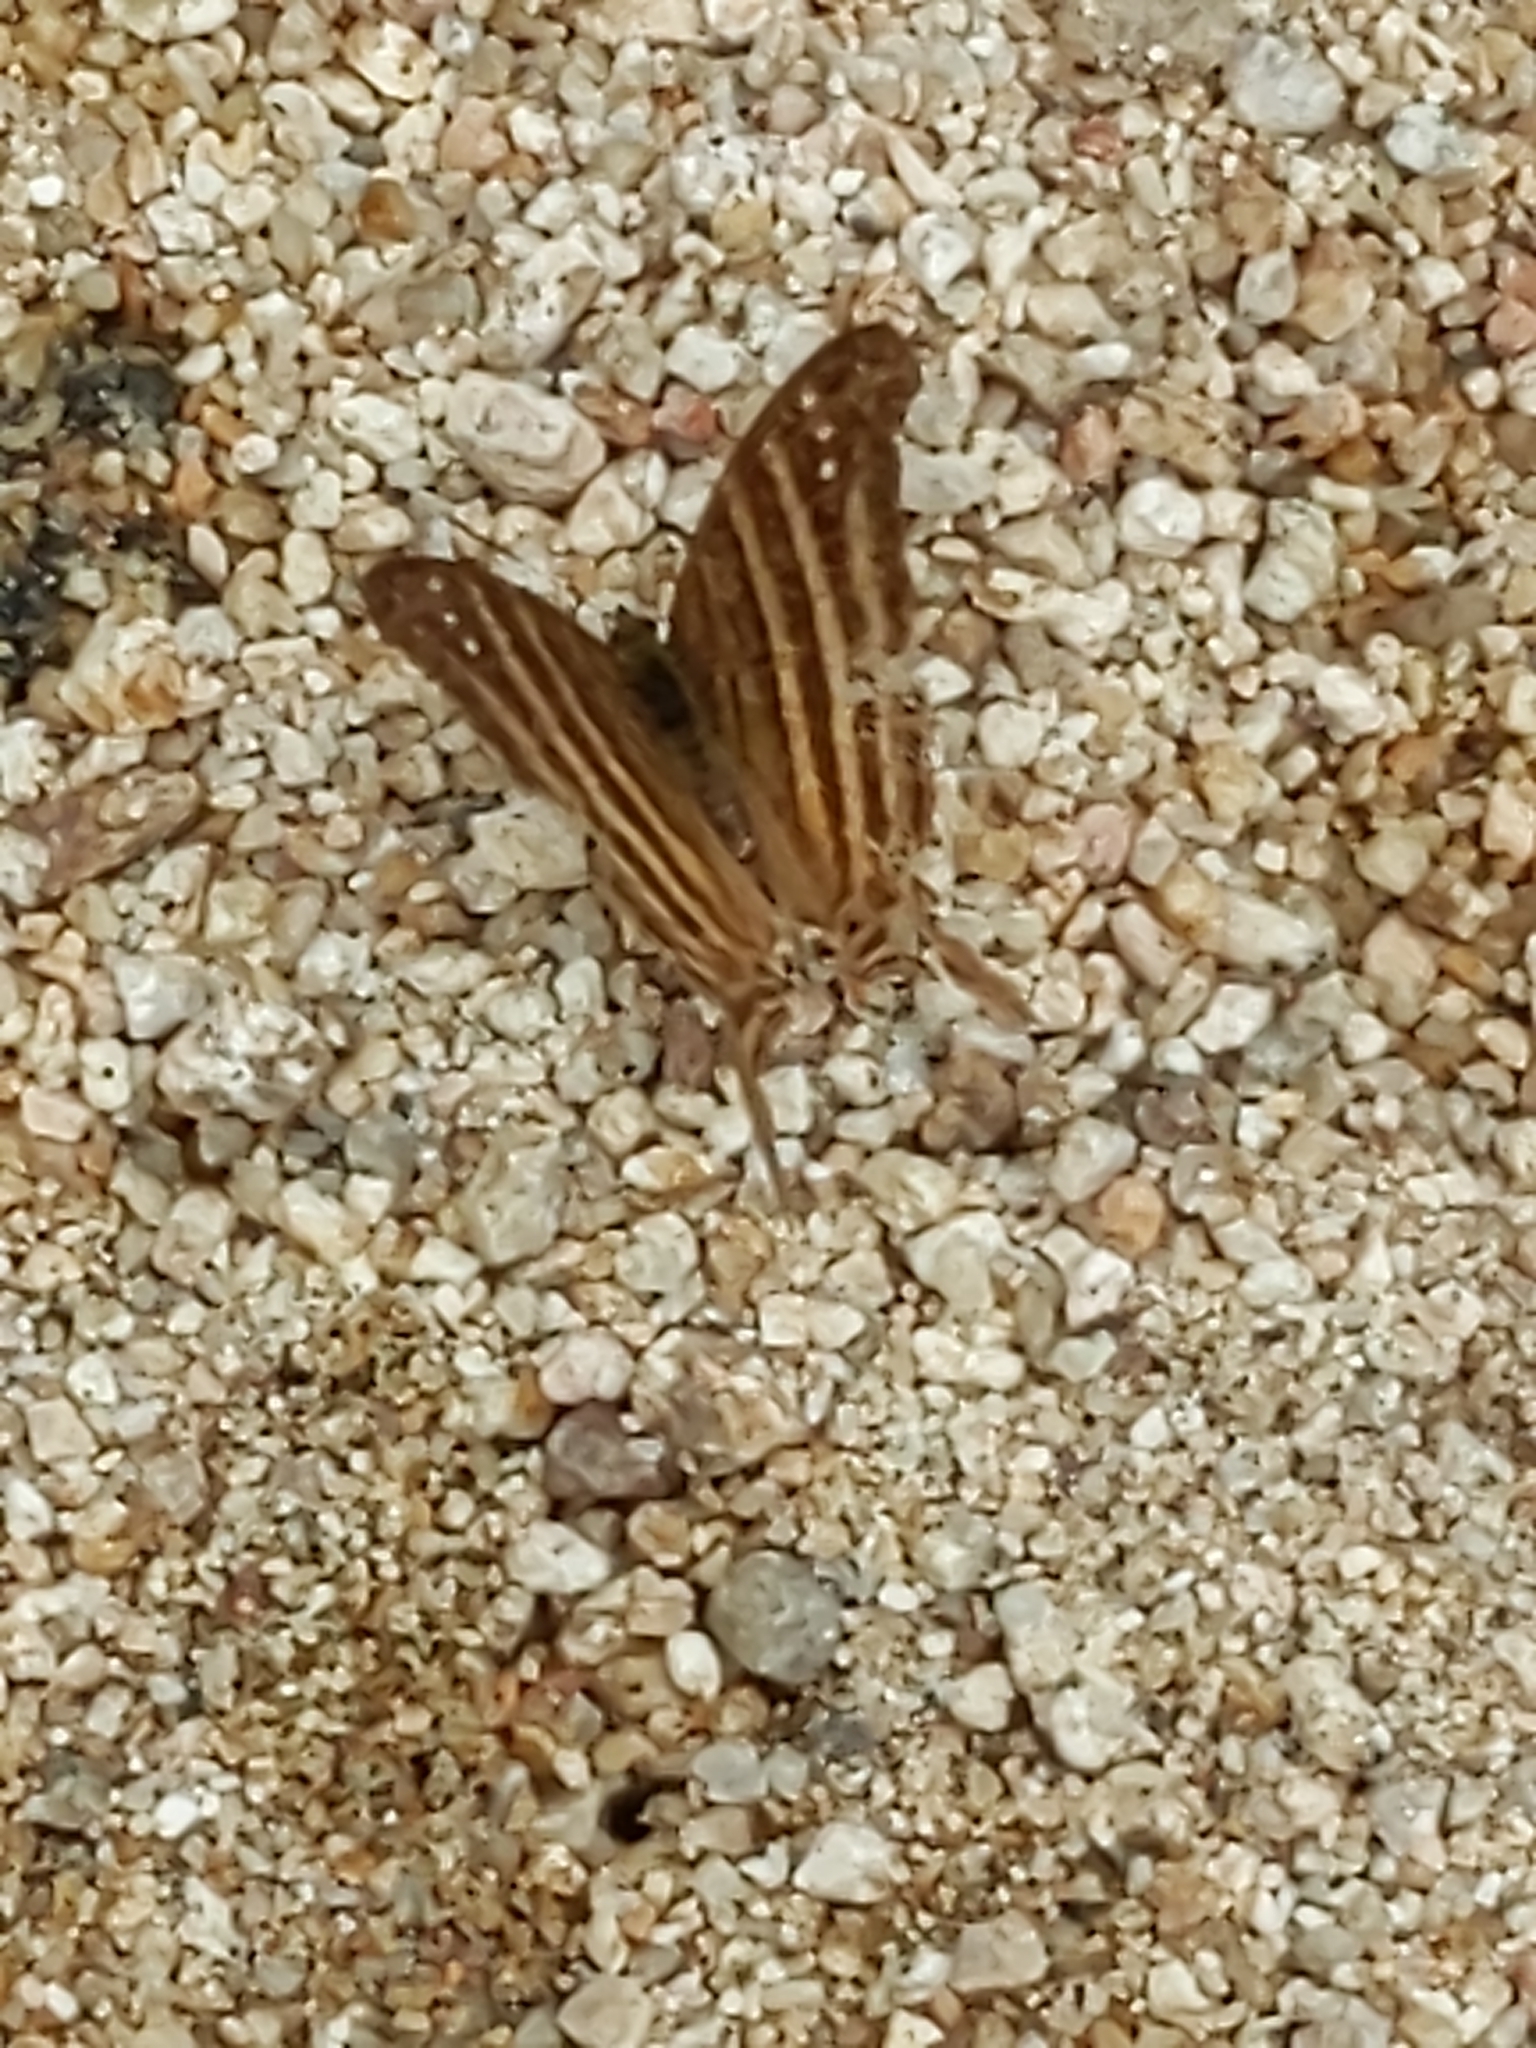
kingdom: Animalia
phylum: Arthropoda
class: Insecta
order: Lepidoptera
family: Nymphalidae
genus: Marpesia
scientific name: Marpesia chiron
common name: Many-banded daggerwing
